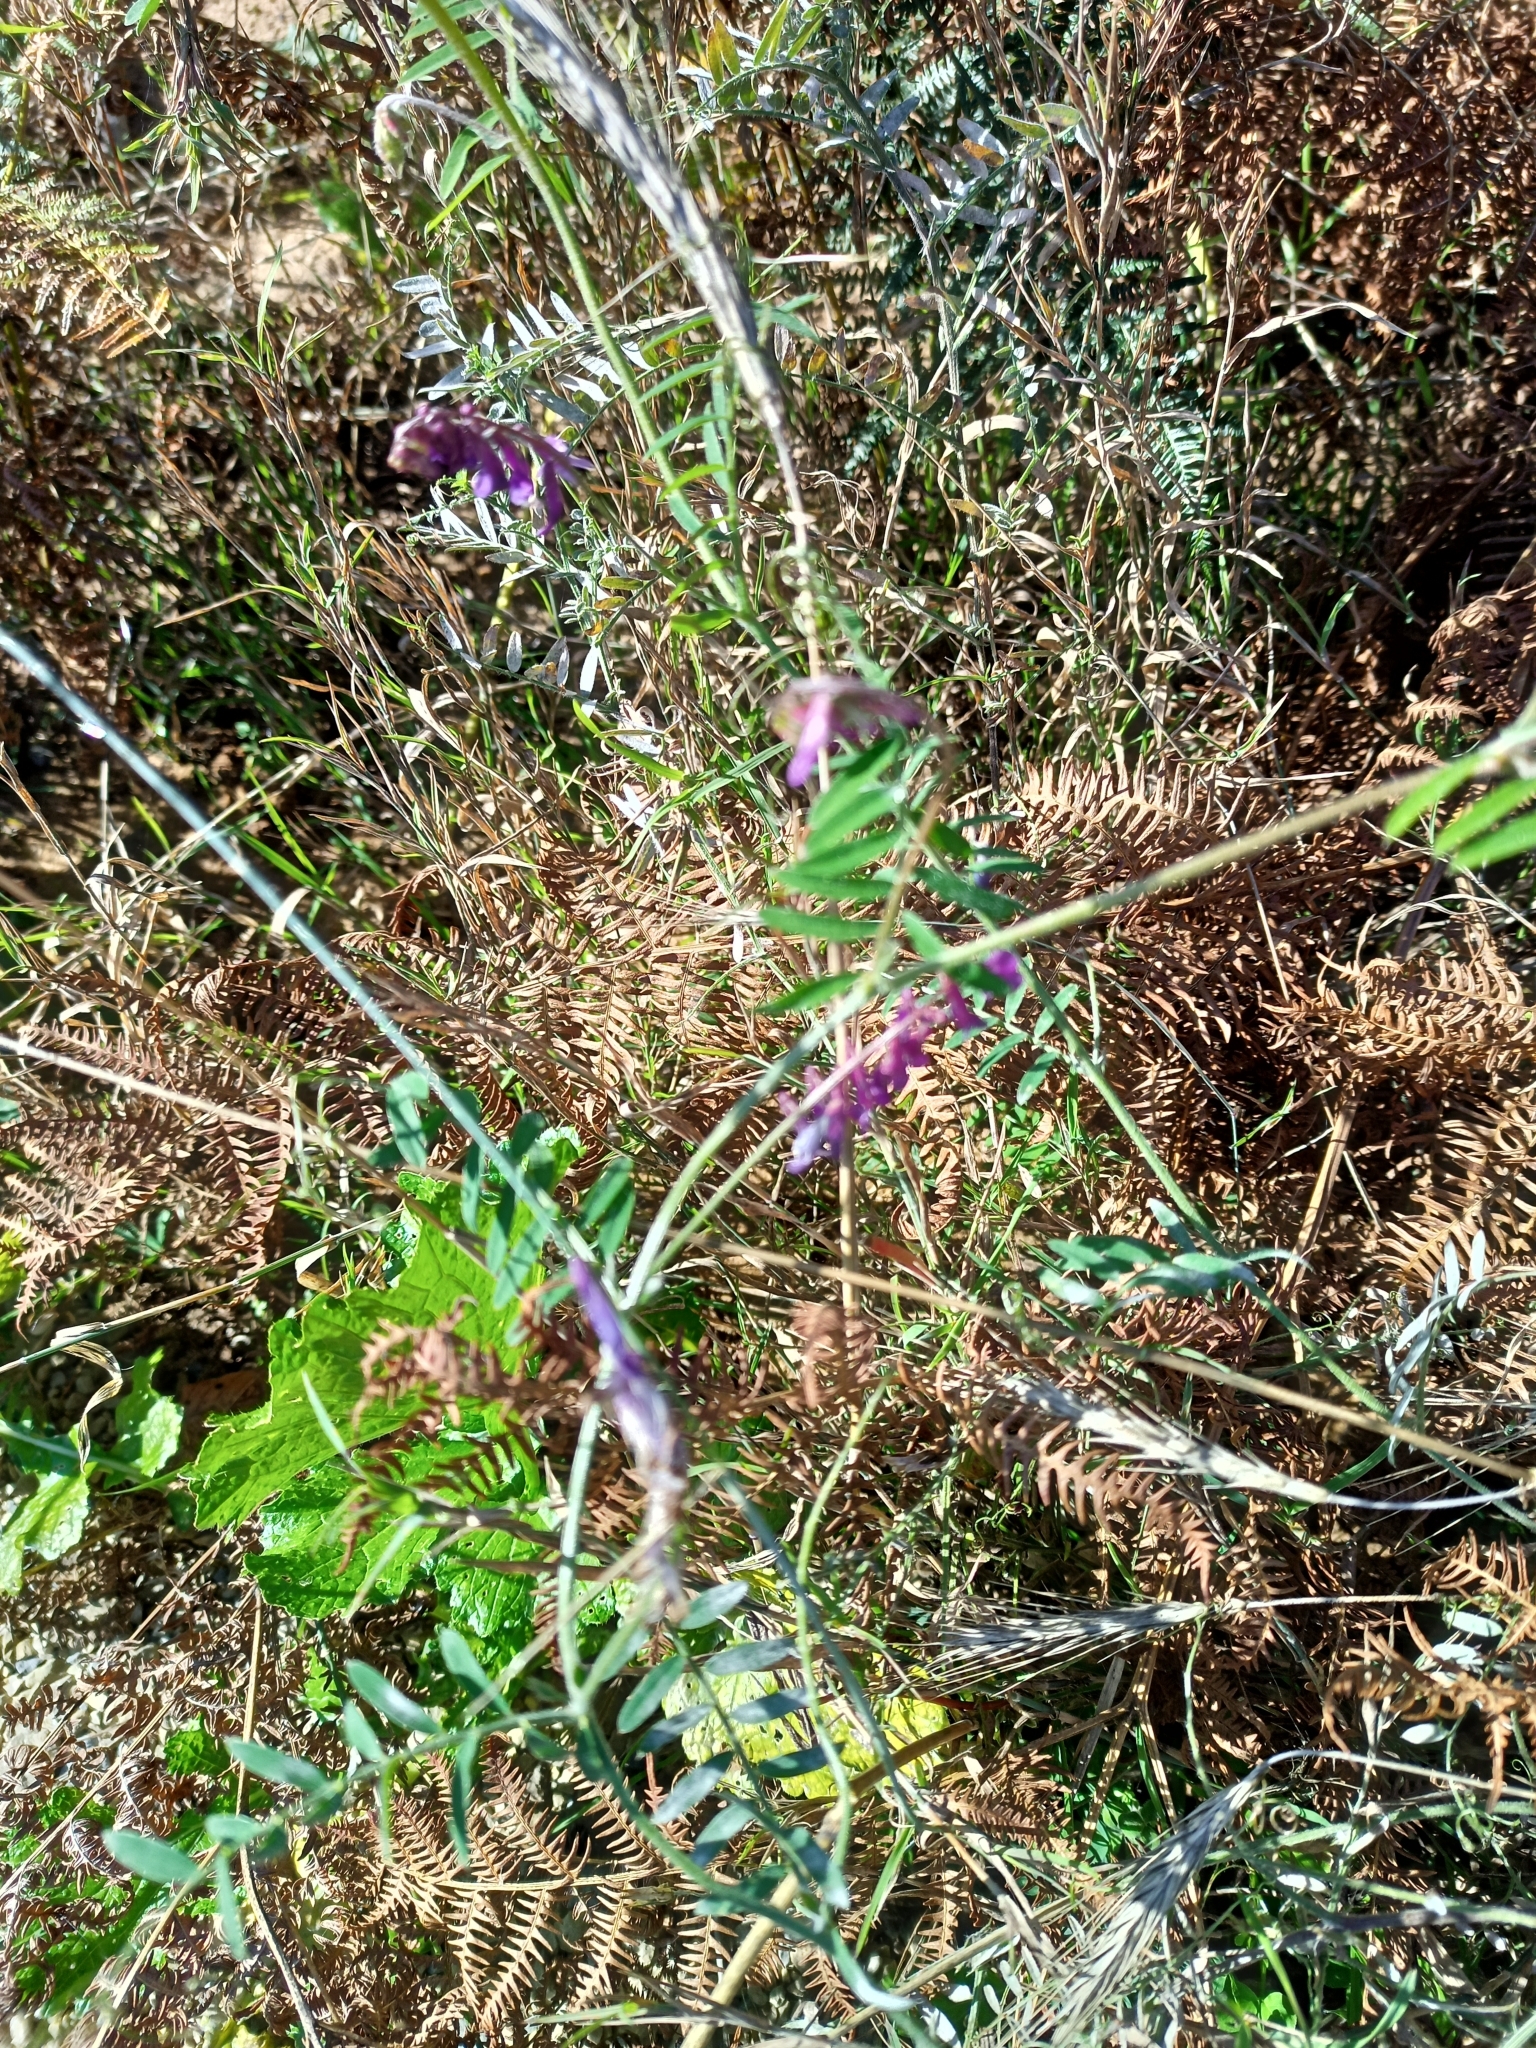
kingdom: Plantae
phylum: Tracheophyta
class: Magnoliopsida
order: Fabales
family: Fabaceae
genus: Vicia
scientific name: Vicia cracca
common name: Bird vetch
